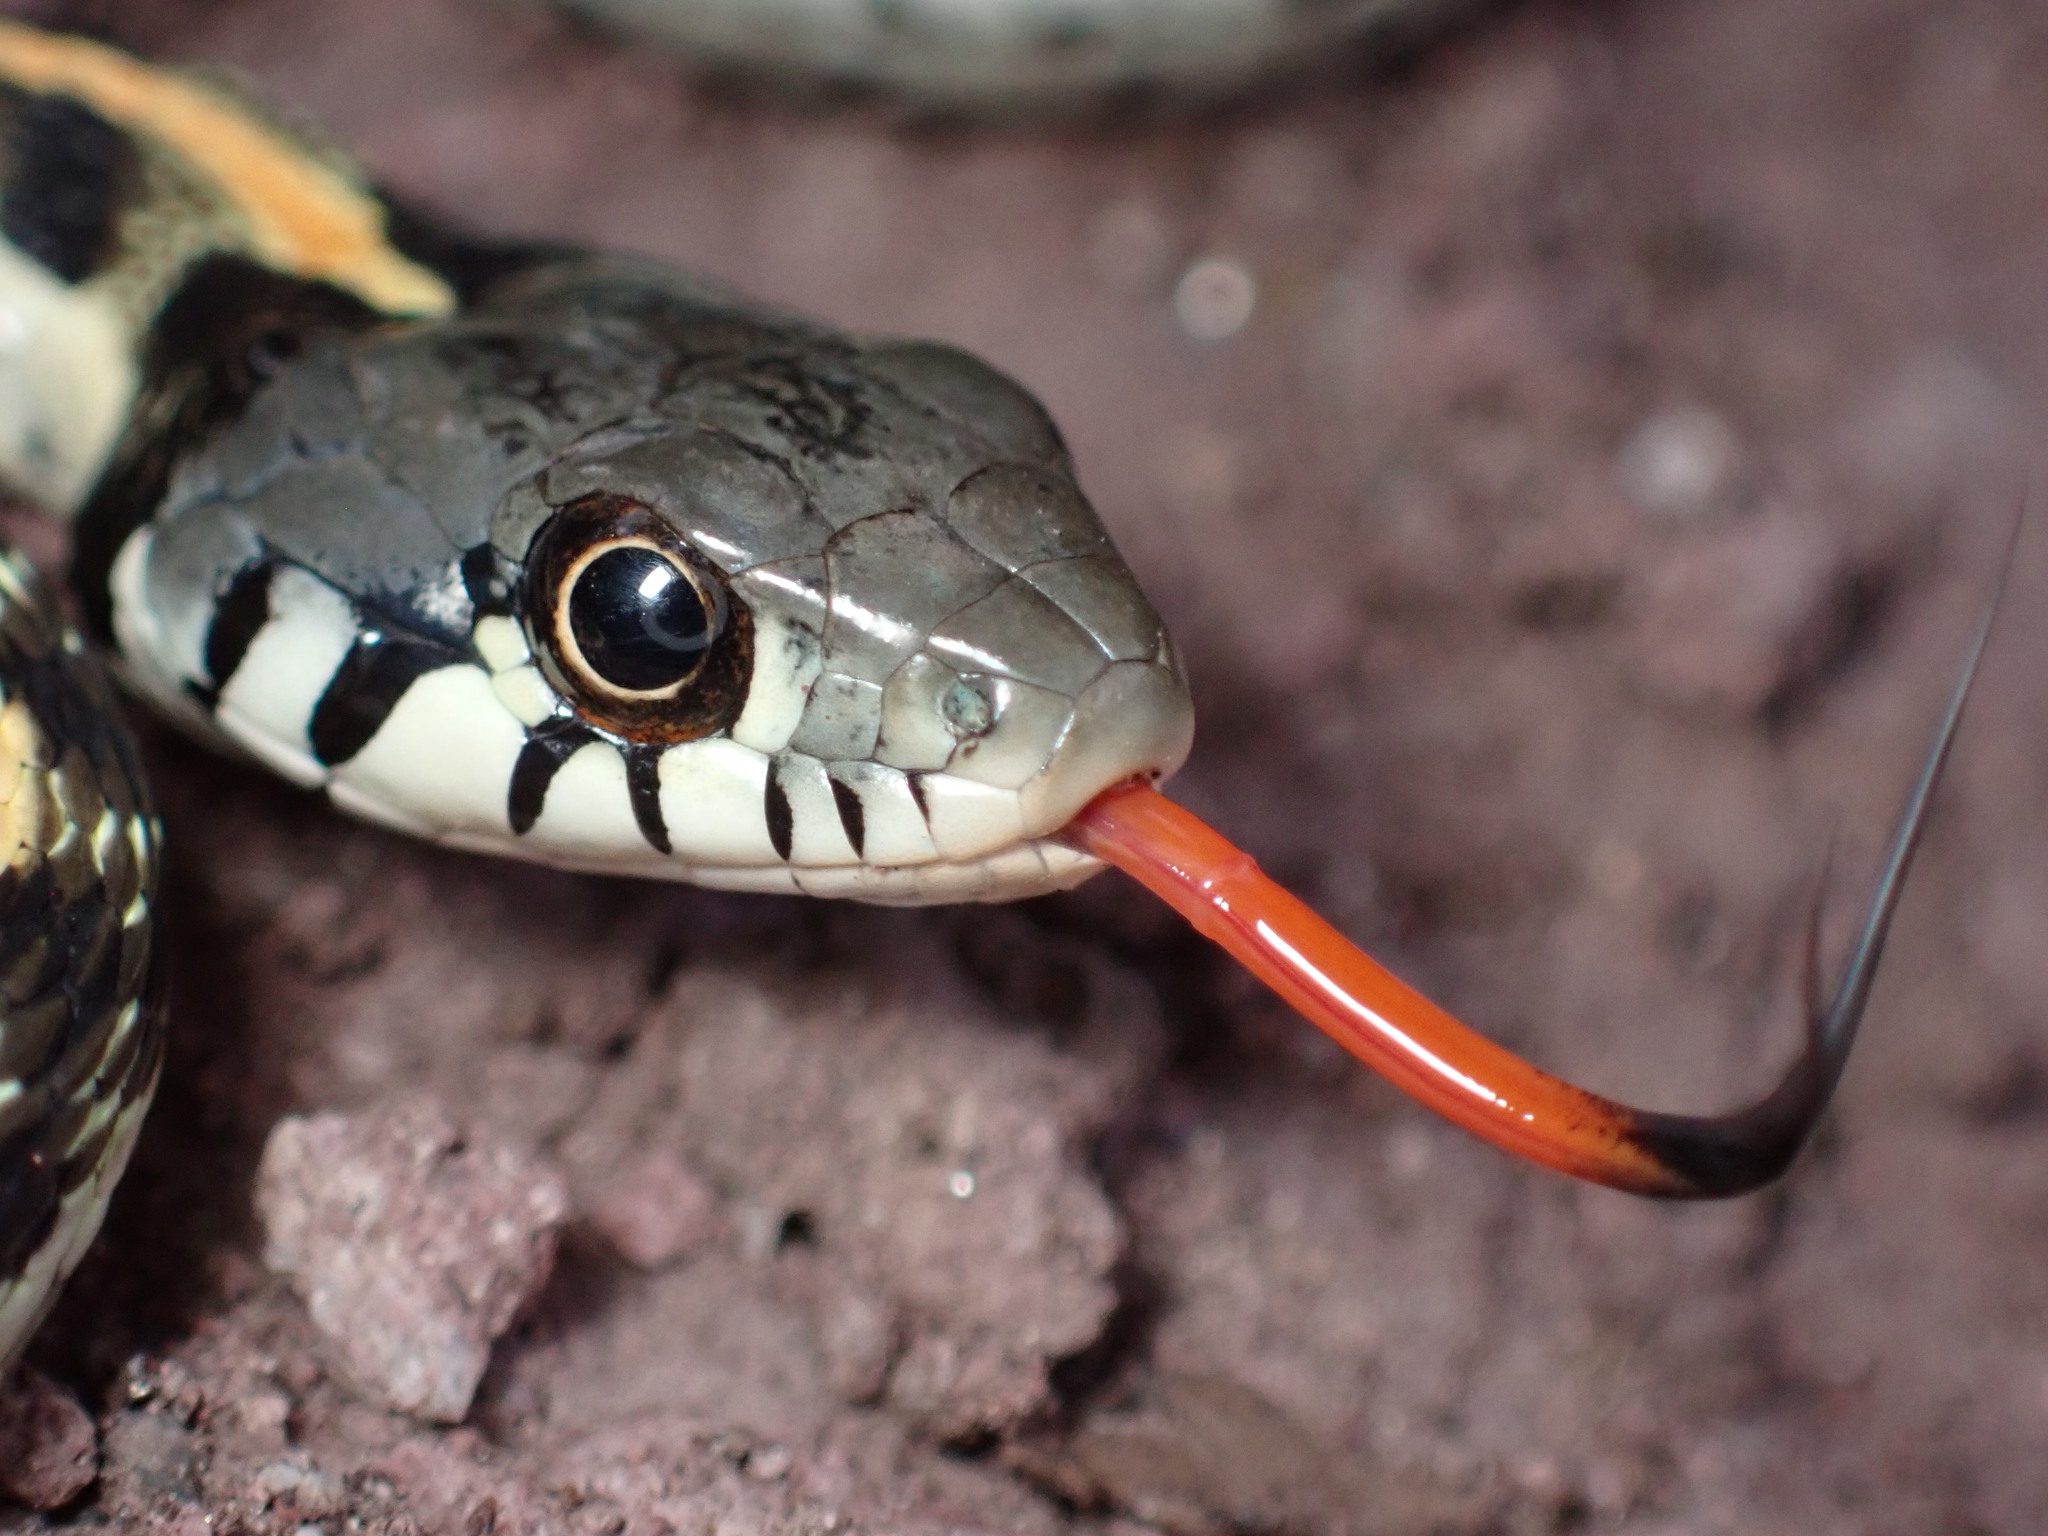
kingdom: Animalia
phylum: Chordata
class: Squamata
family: Colubridae
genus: Thamnophis
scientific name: Thamnophis cyrtopsis
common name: Black-necked gartersnake
